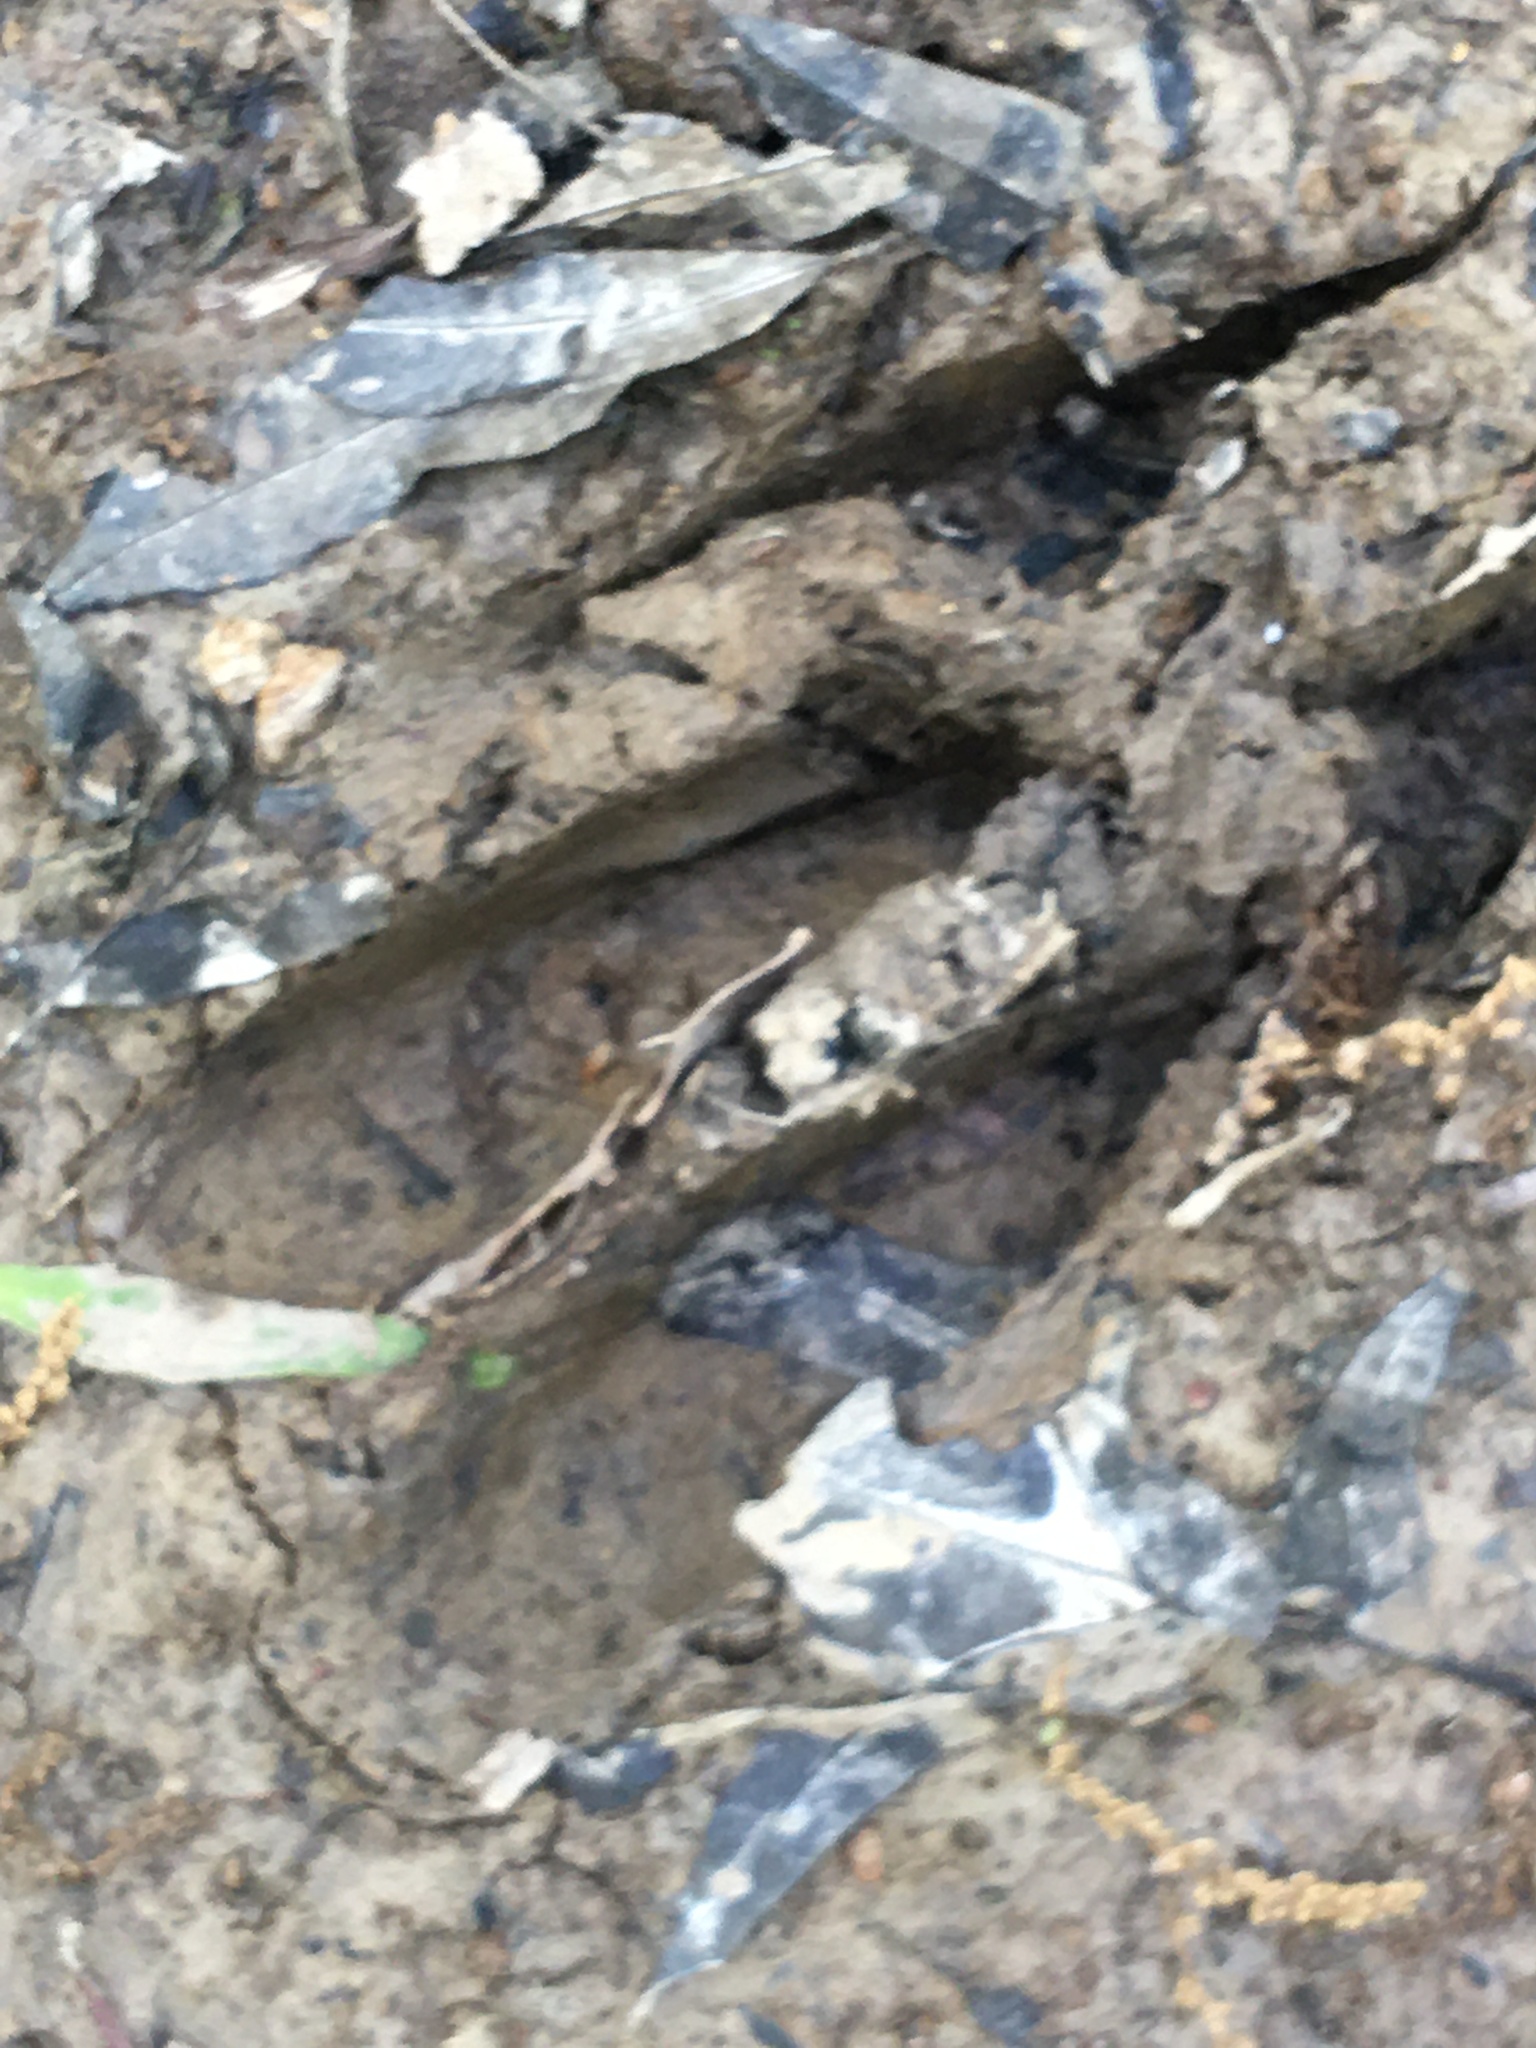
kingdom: Animalia
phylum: Chordata
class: Mammalia
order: Artiodactyla
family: Cervidae
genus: Odocoileus
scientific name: Odocoileus virginianus
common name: White-tailed deer
